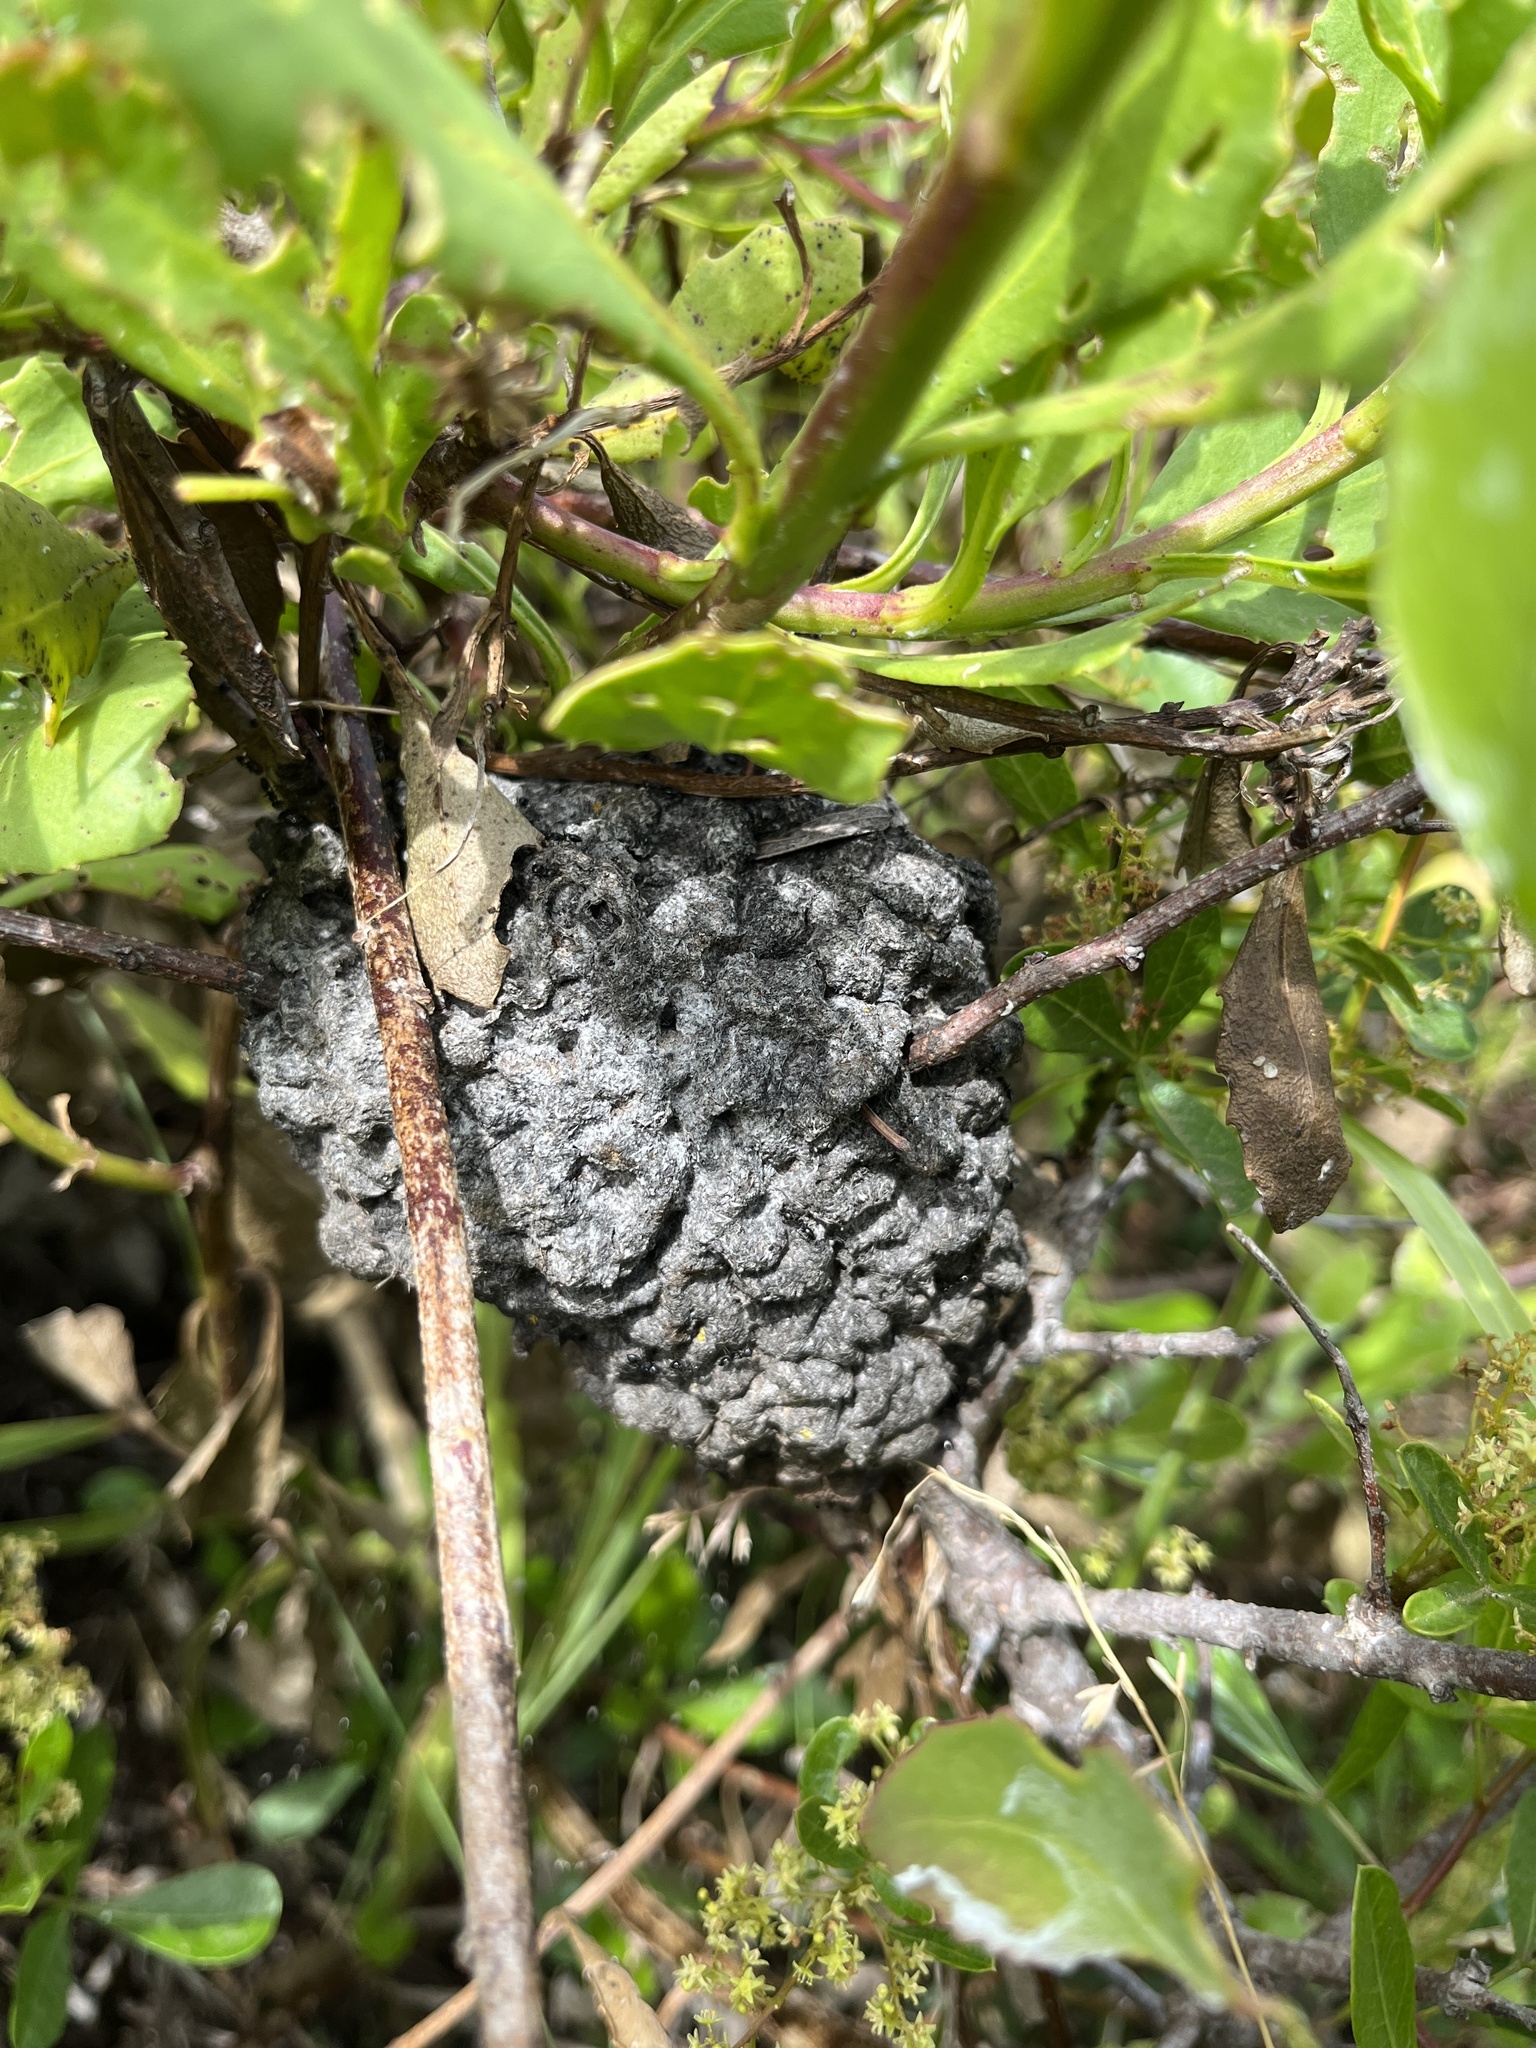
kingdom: Animalia
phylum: Arthropoda
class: Insecta
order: Hymenoptera
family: Formicidae
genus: Crematogaster
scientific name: Crematogaster peringueyi
